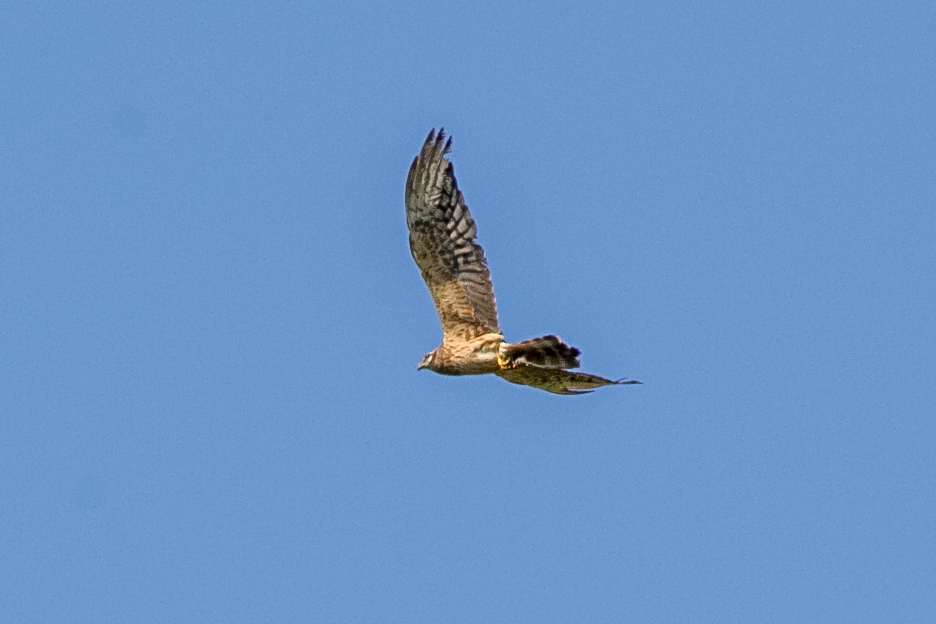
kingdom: Animalia
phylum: Chordata
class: Aves
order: Accipitriformes
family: Accipitridae
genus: Circus
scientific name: Circus cyaneus
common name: Hen harrier
